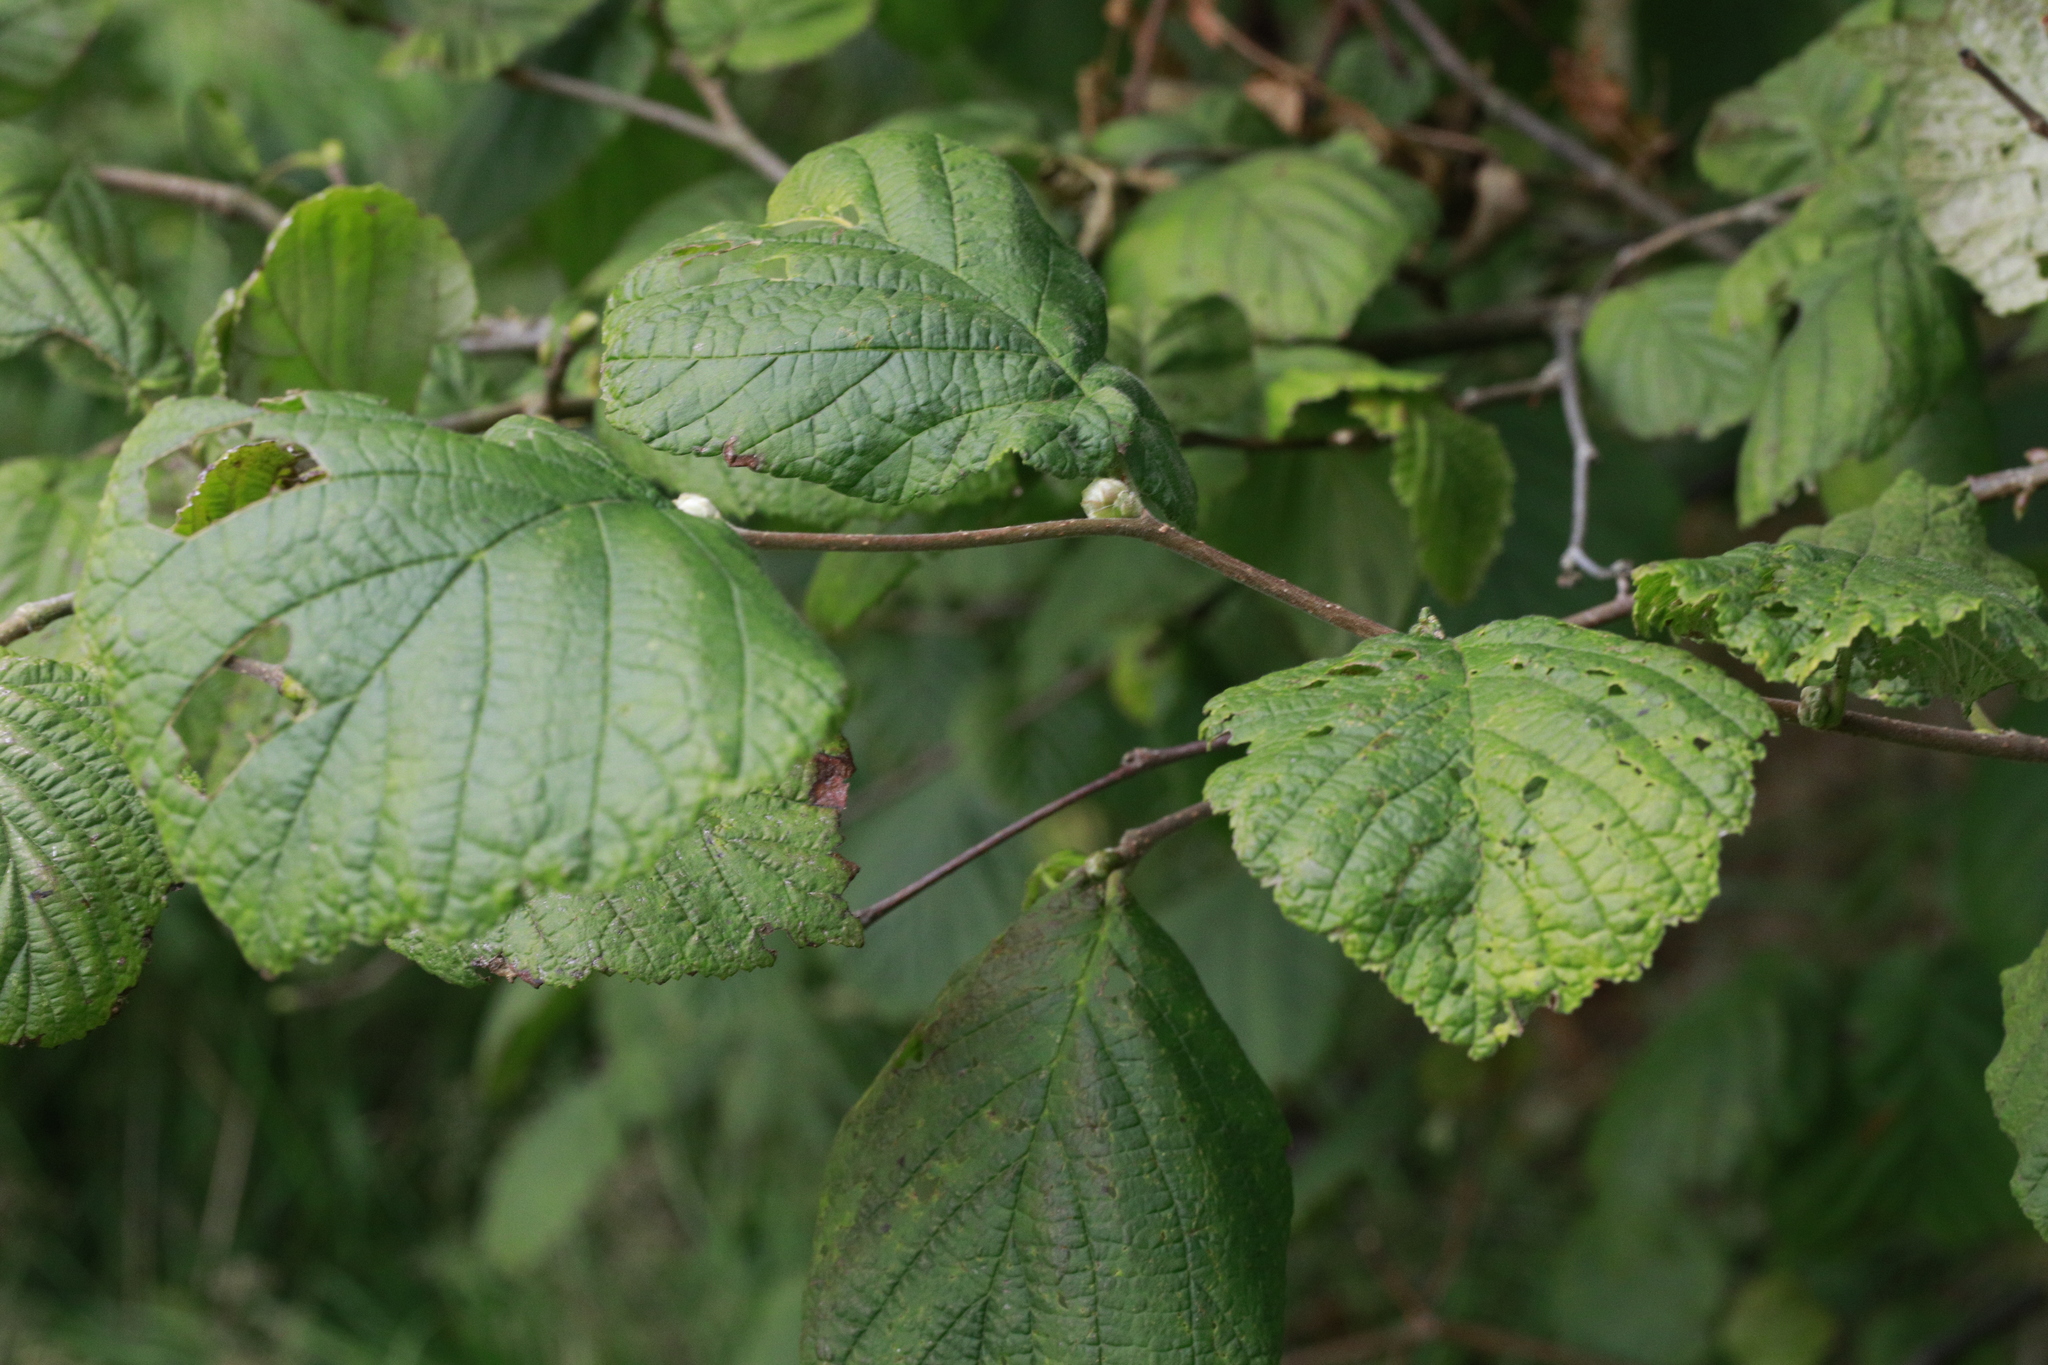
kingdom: Plantae
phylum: Tracheophyta
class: Magnoliopsida
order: Fagales
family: Betulaceae
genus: Corylus
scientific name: Corylus avellana
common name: European hazel
